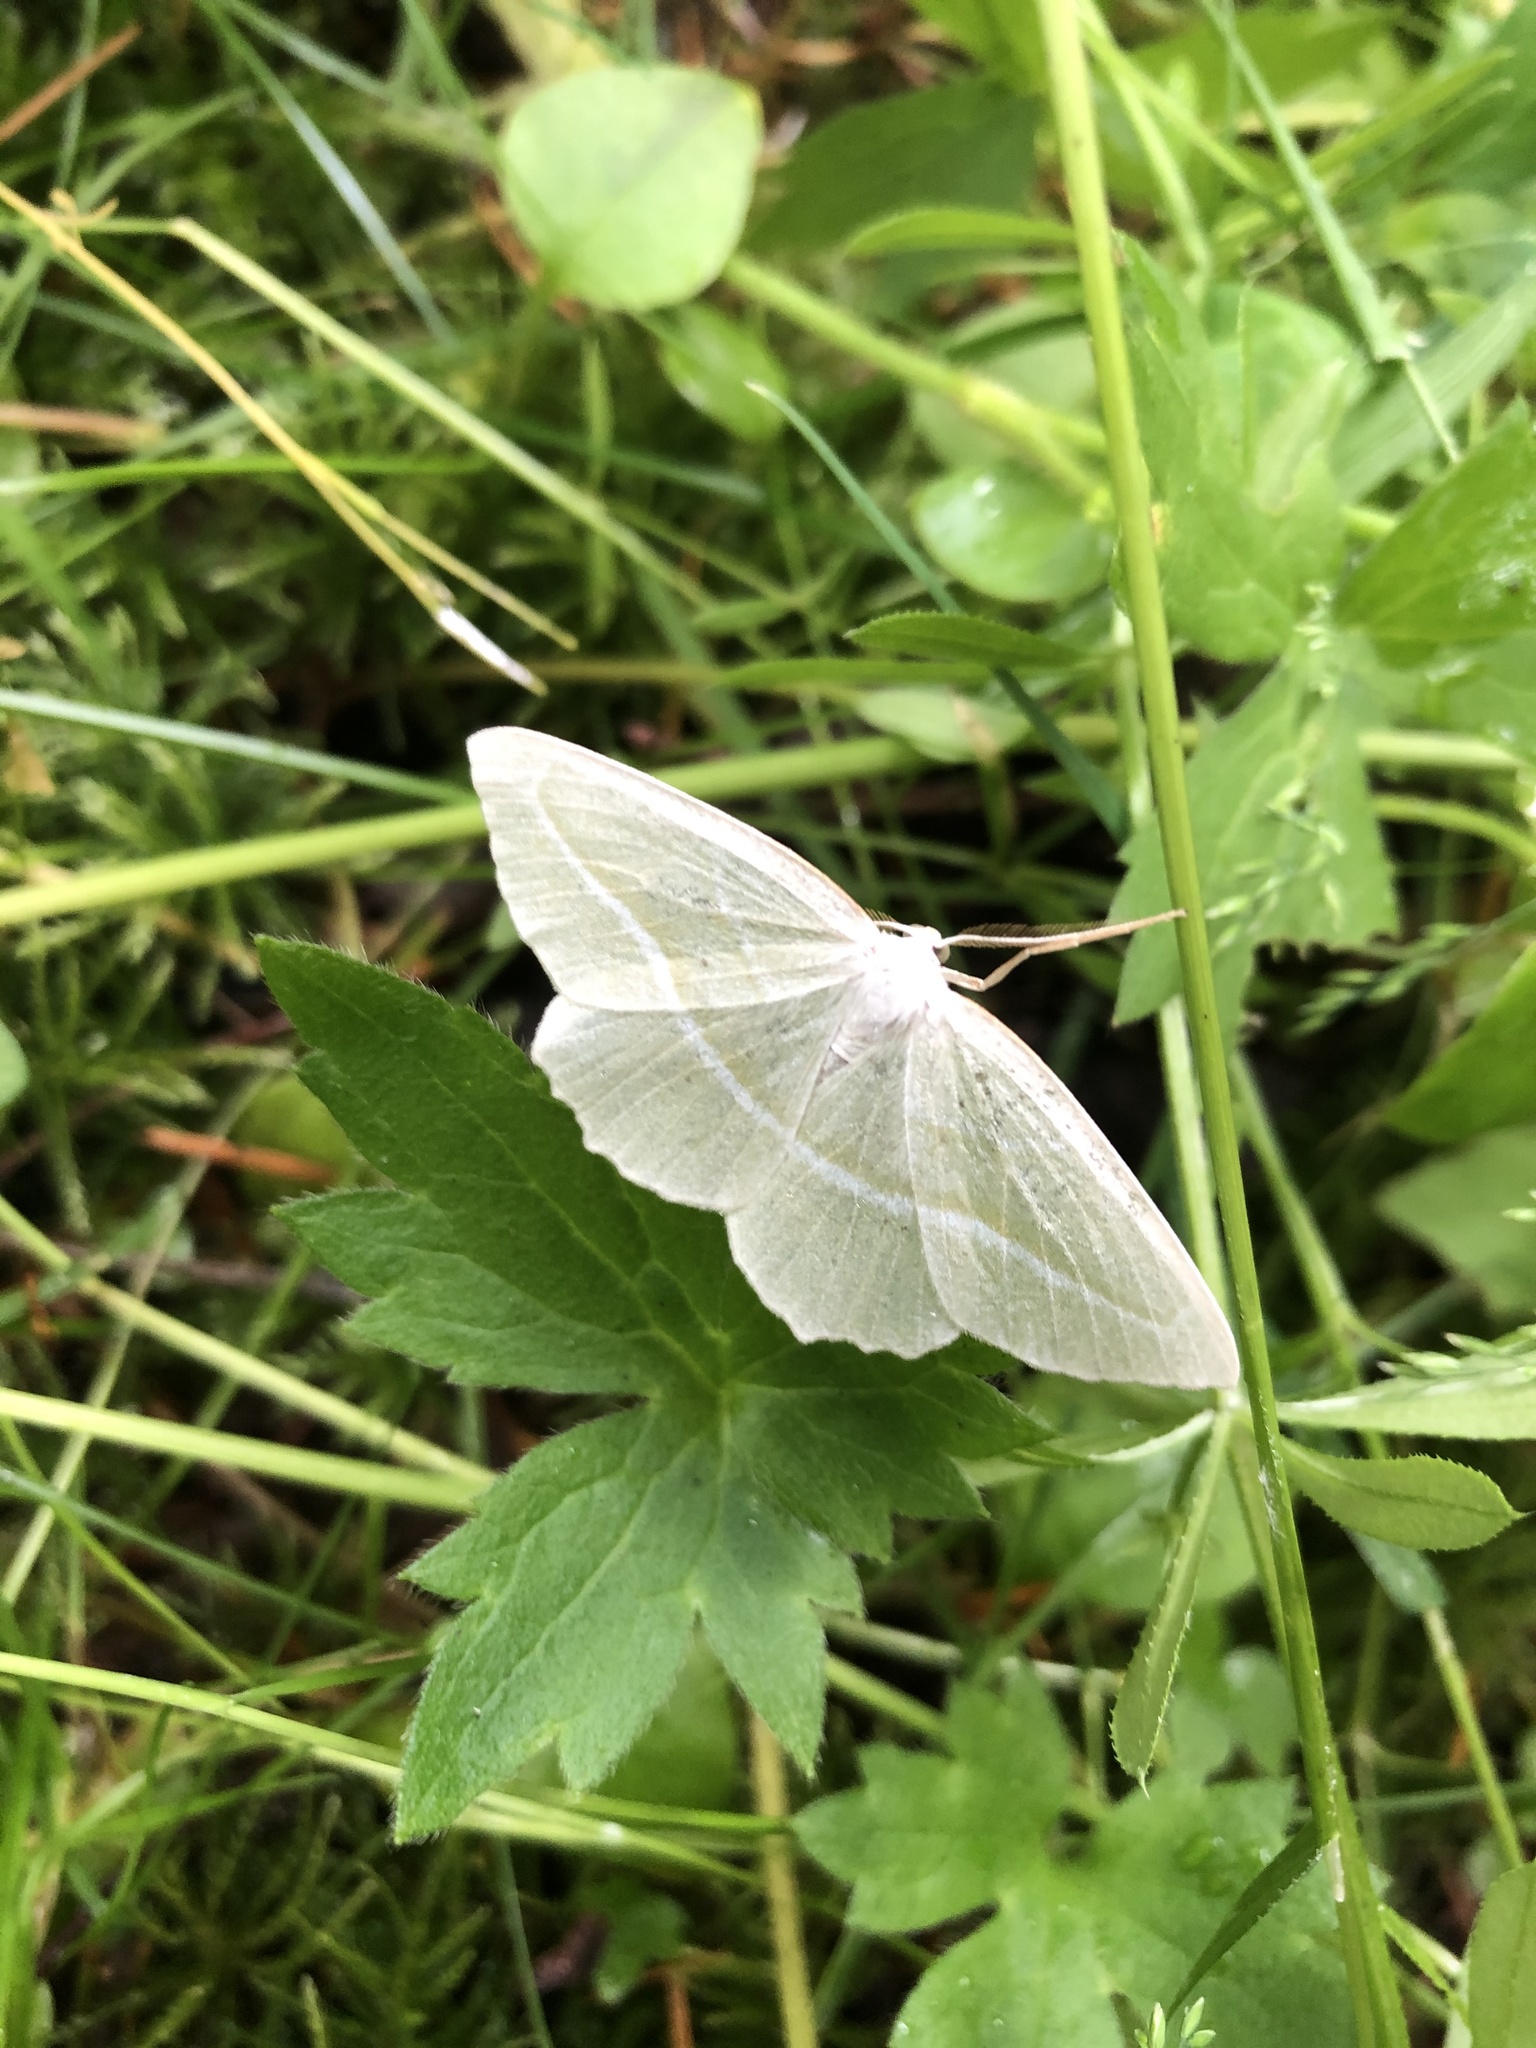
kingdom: Animalia
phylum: Arthropoda
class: Insecta
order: Lepidoptera
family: Geometridae
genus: Campaea
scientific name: Campaea perlata
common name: Fringed looper
